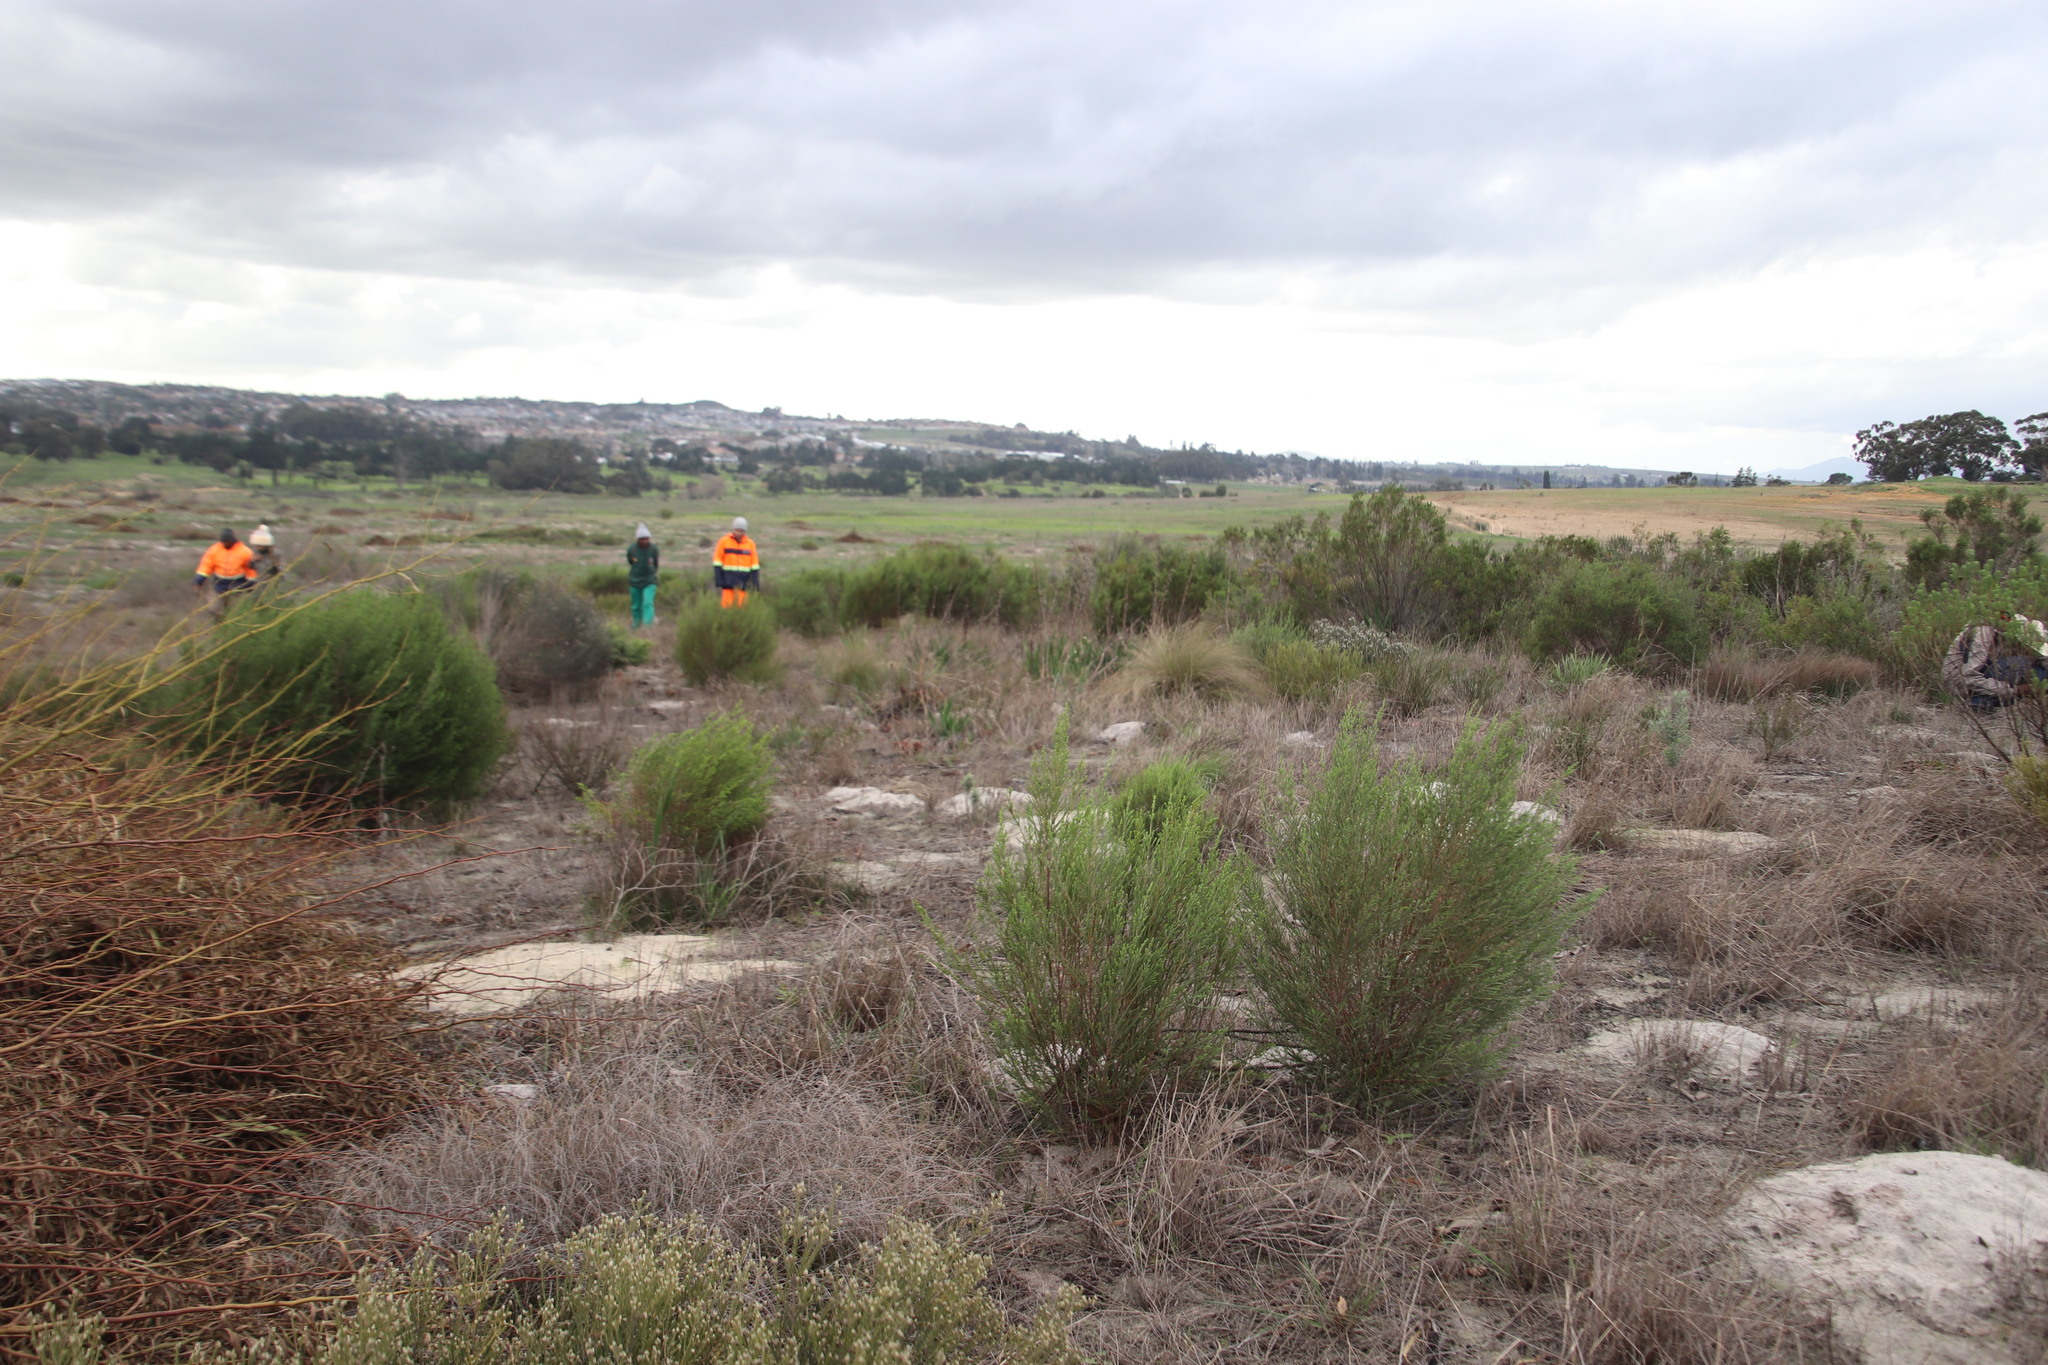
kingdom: Plantae
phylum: Tracheophyta
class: Magnoliopsida
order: Malvales
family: Thymelaeaceae
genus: Passerina
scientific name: Passerina corymbosa
